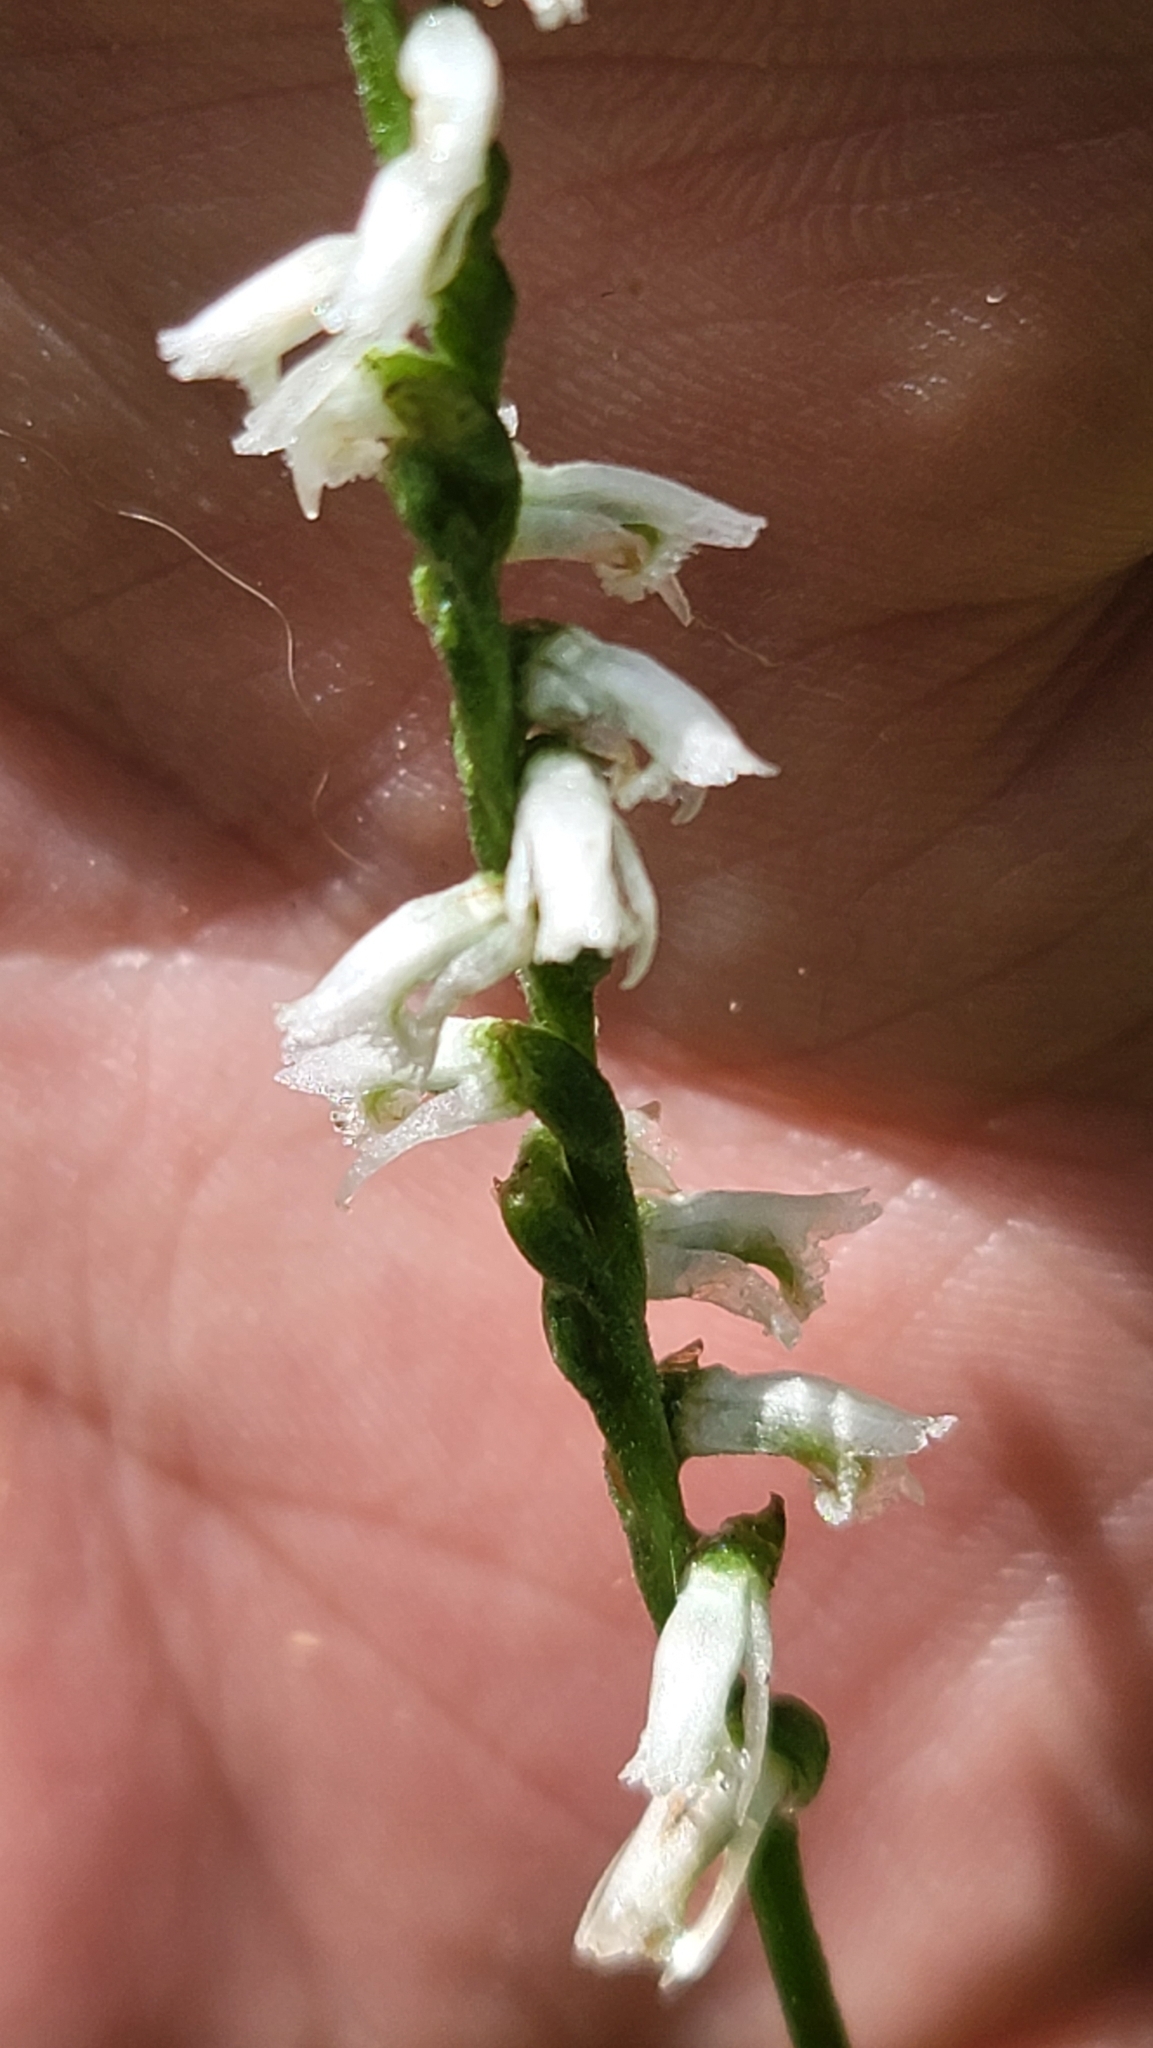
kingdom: Plantae
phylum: Tracheophyta
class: Liliopsida
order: Asparagales
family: Orchidaceae
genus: Spiranthes
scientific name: Spiranthes lacera
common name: Northern slender ladies'-tresses
